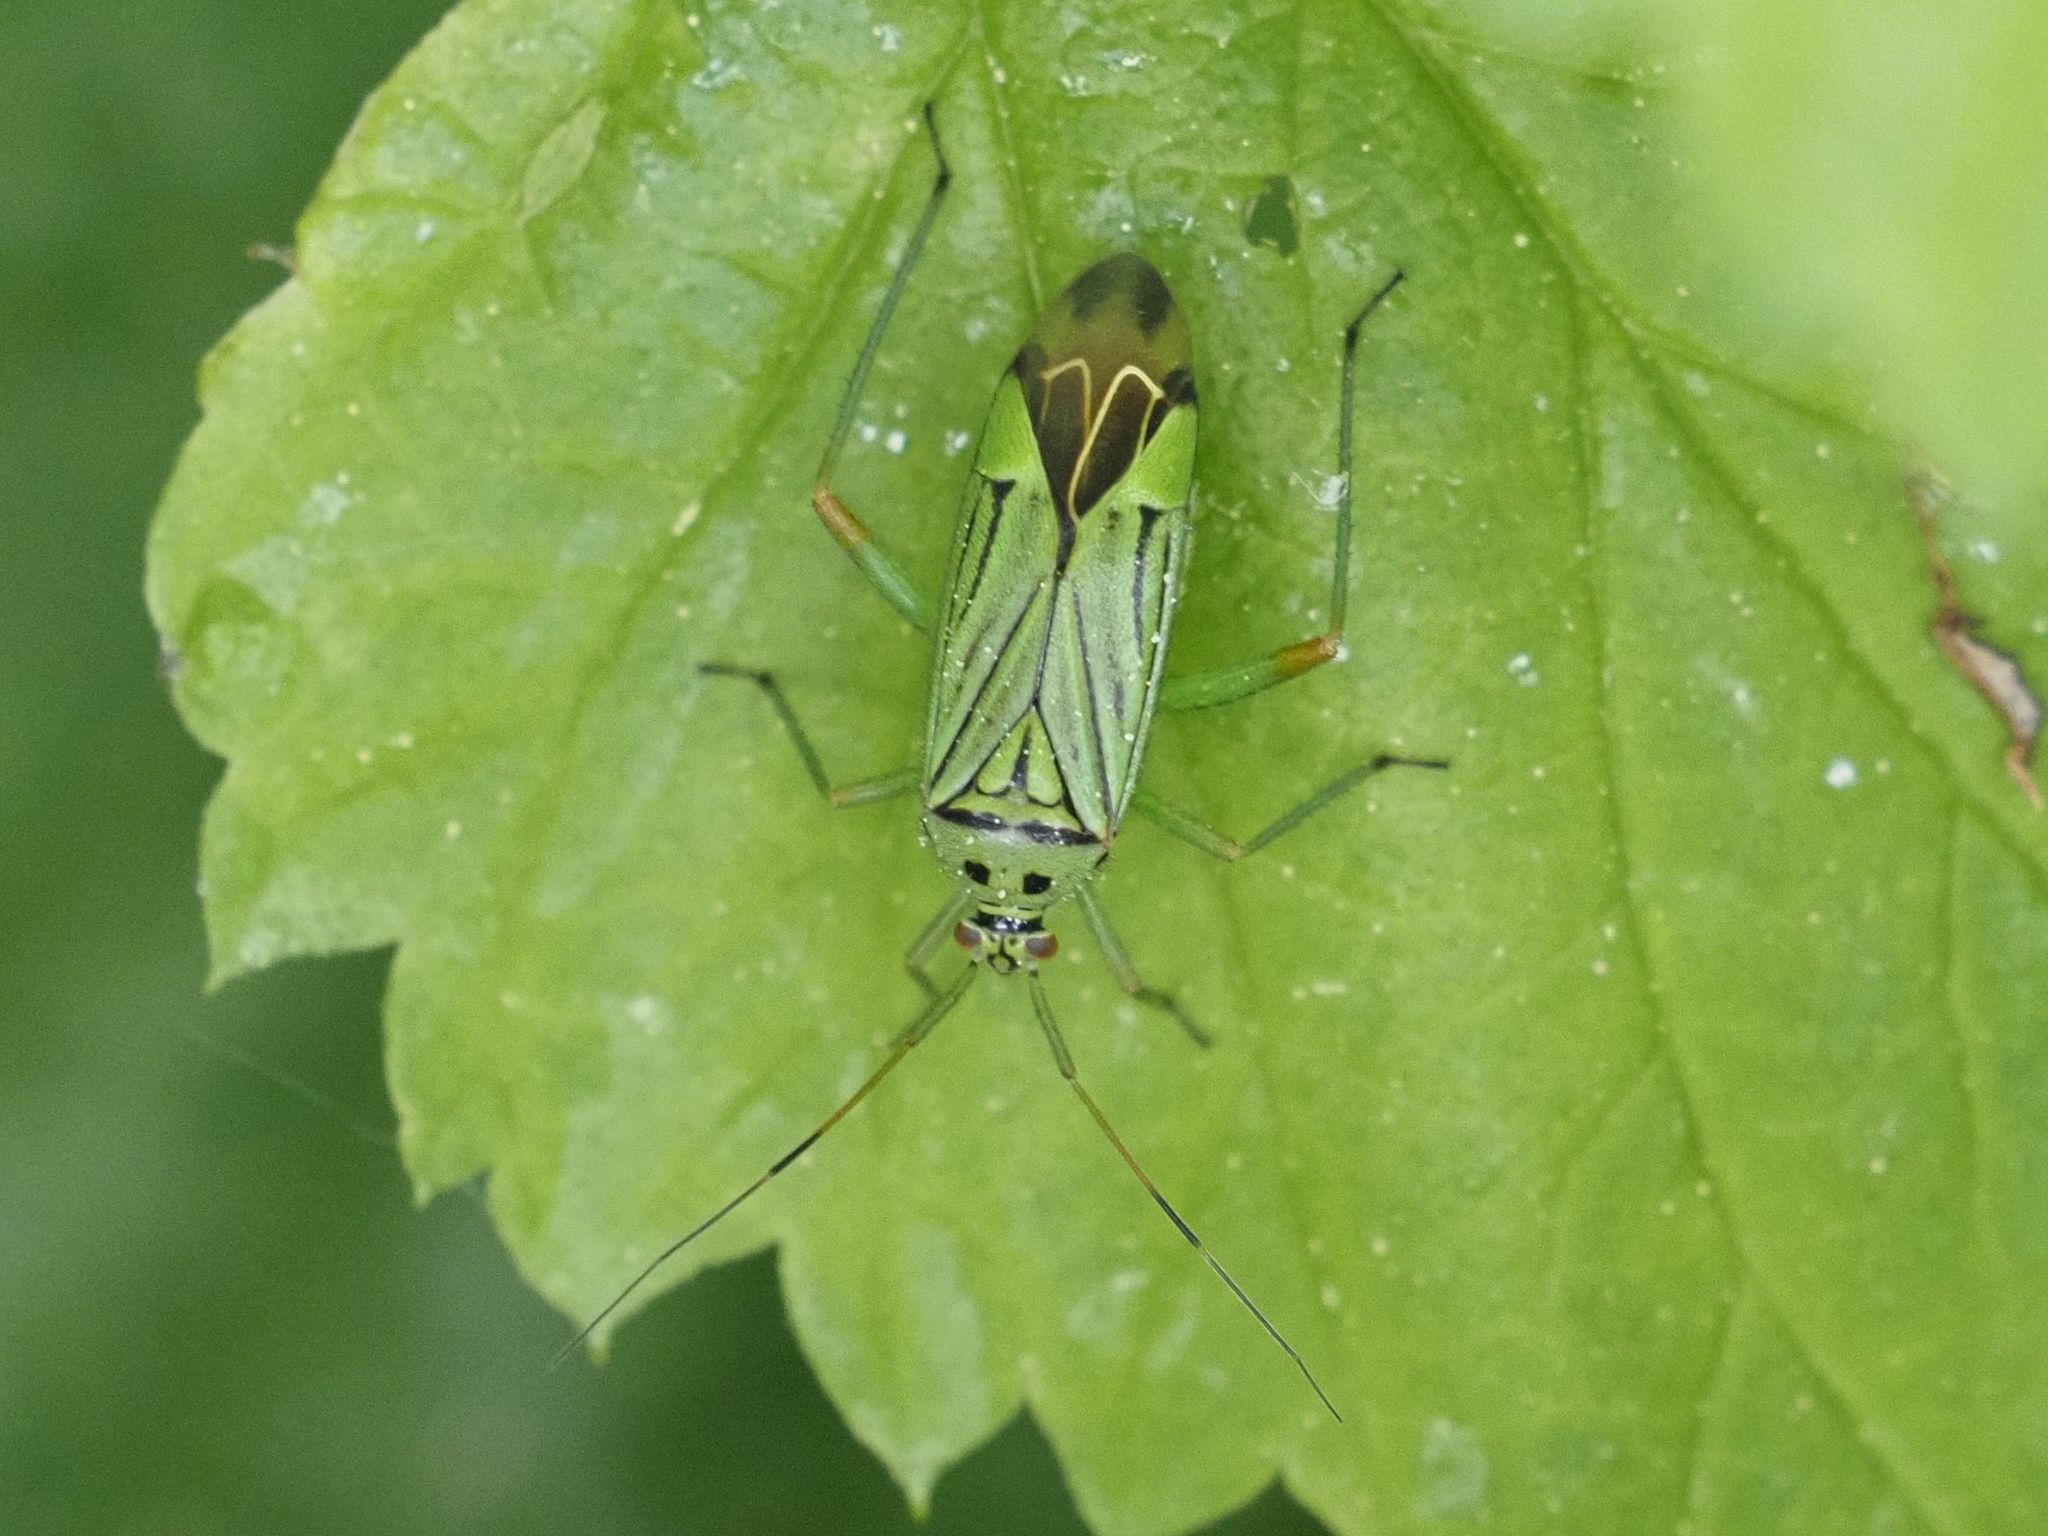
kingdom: Animalia
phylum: Arthropoda
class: Insecta
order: Hemiptera
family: Miridae
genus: Mermitelocerus
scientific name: Mermitelocerus schmidtii
